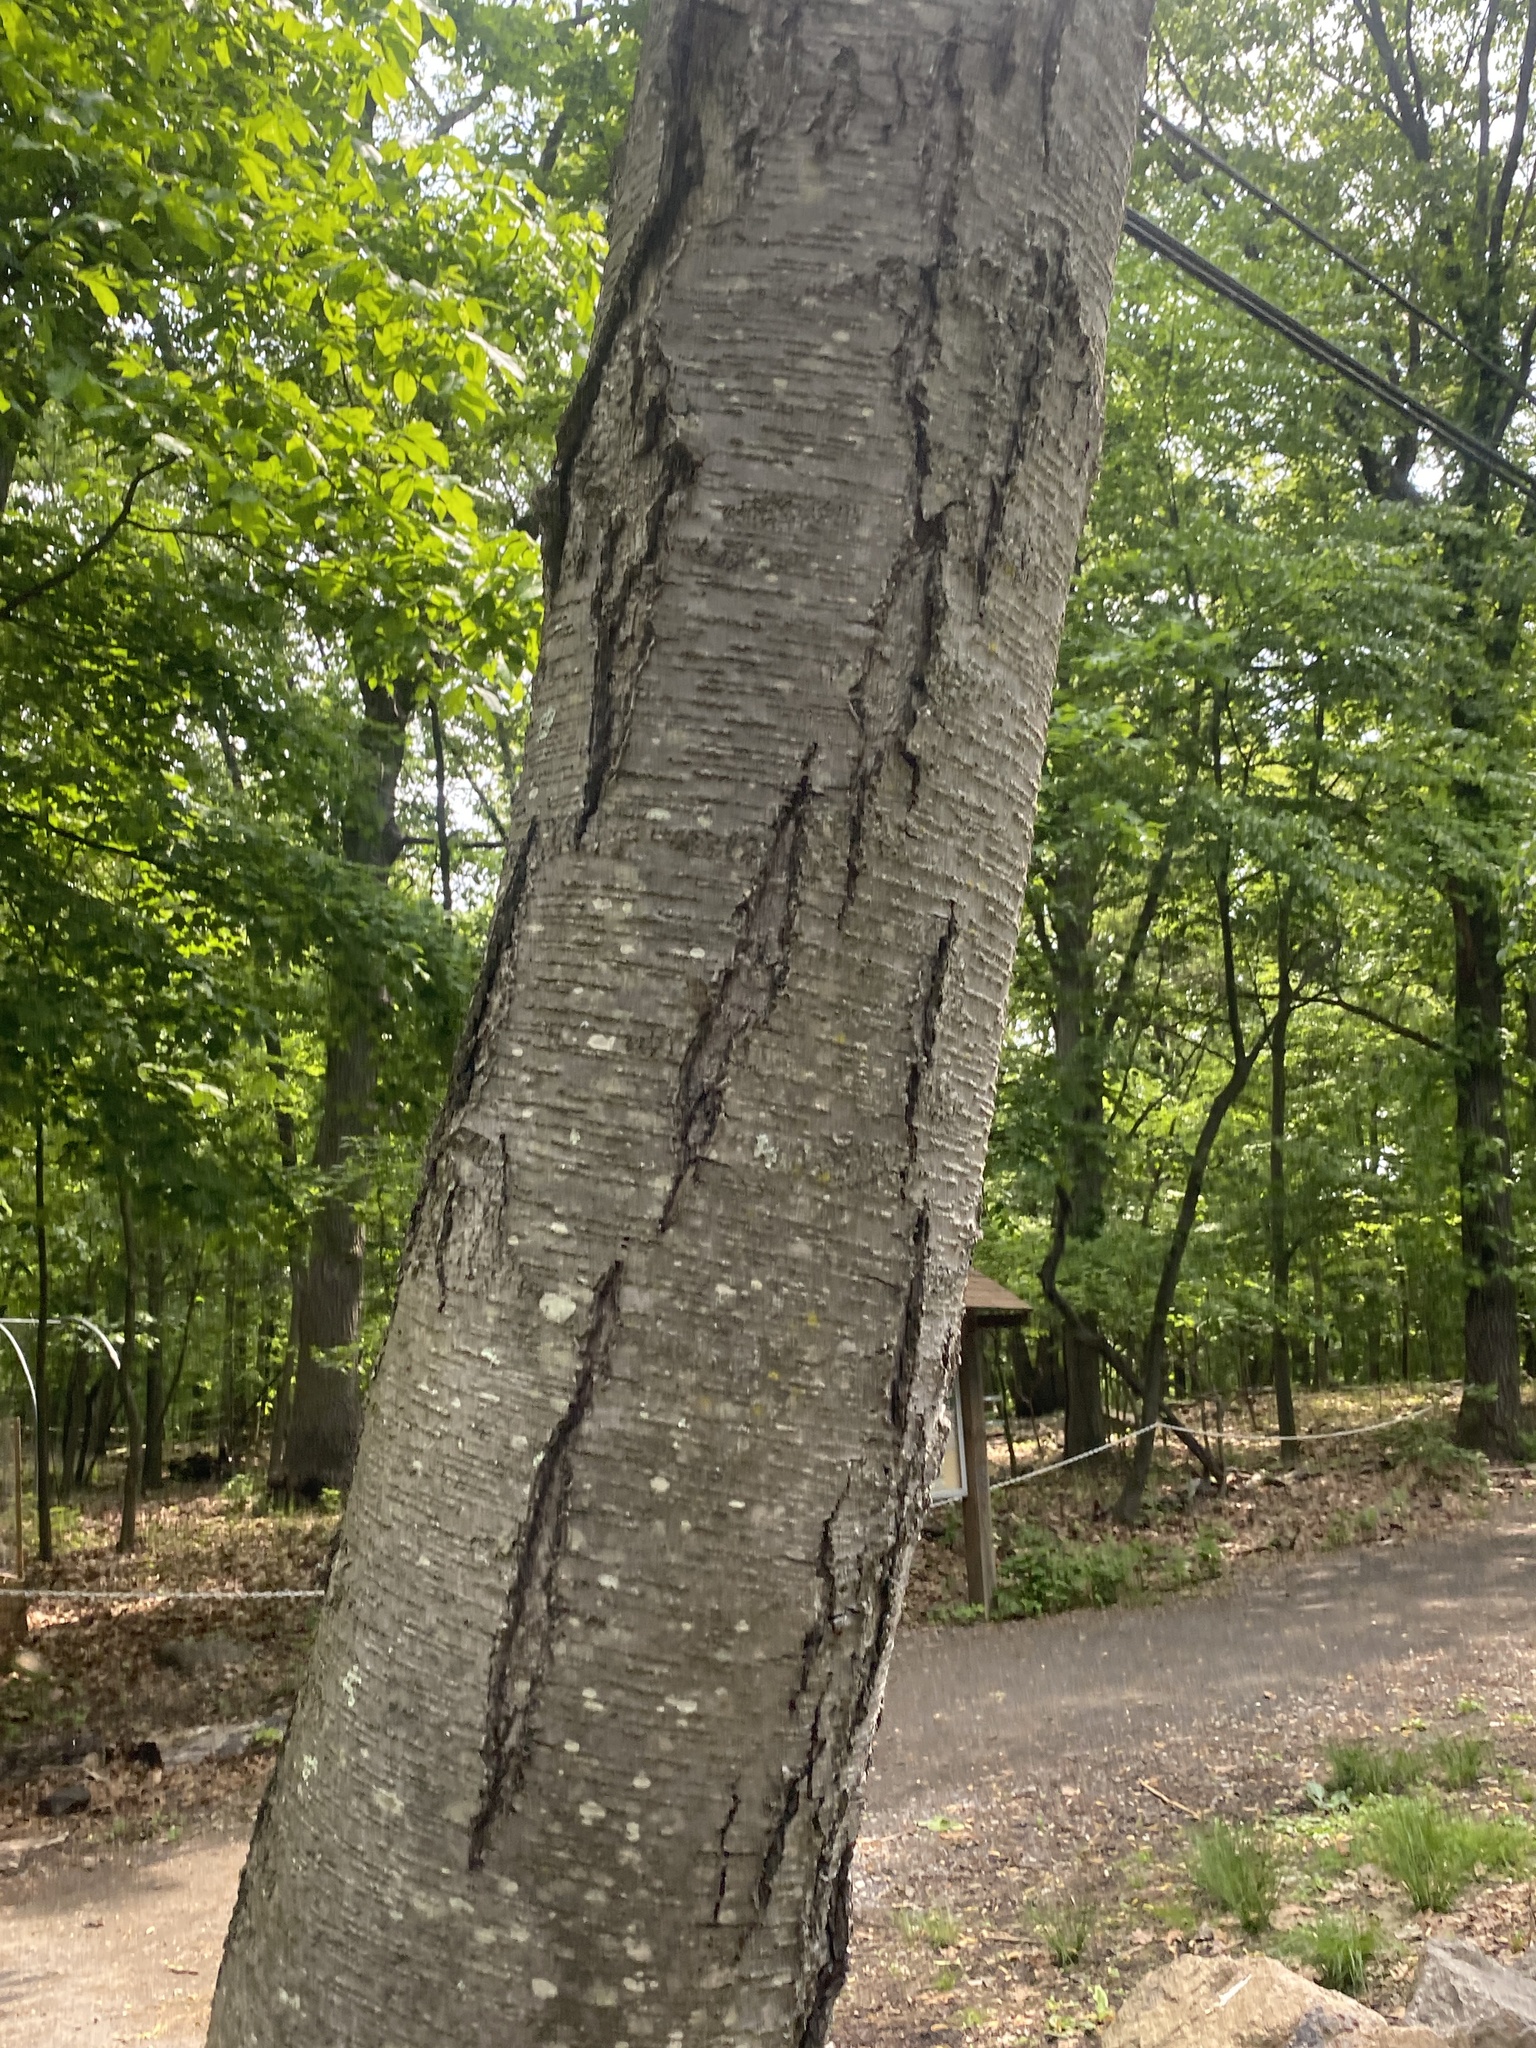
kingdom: Plantae
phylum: Tracheophyta
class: Magnoliopsida
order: Fagales
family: Betulaceae
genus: Betula
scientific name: Betula lenta
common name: Black birch
